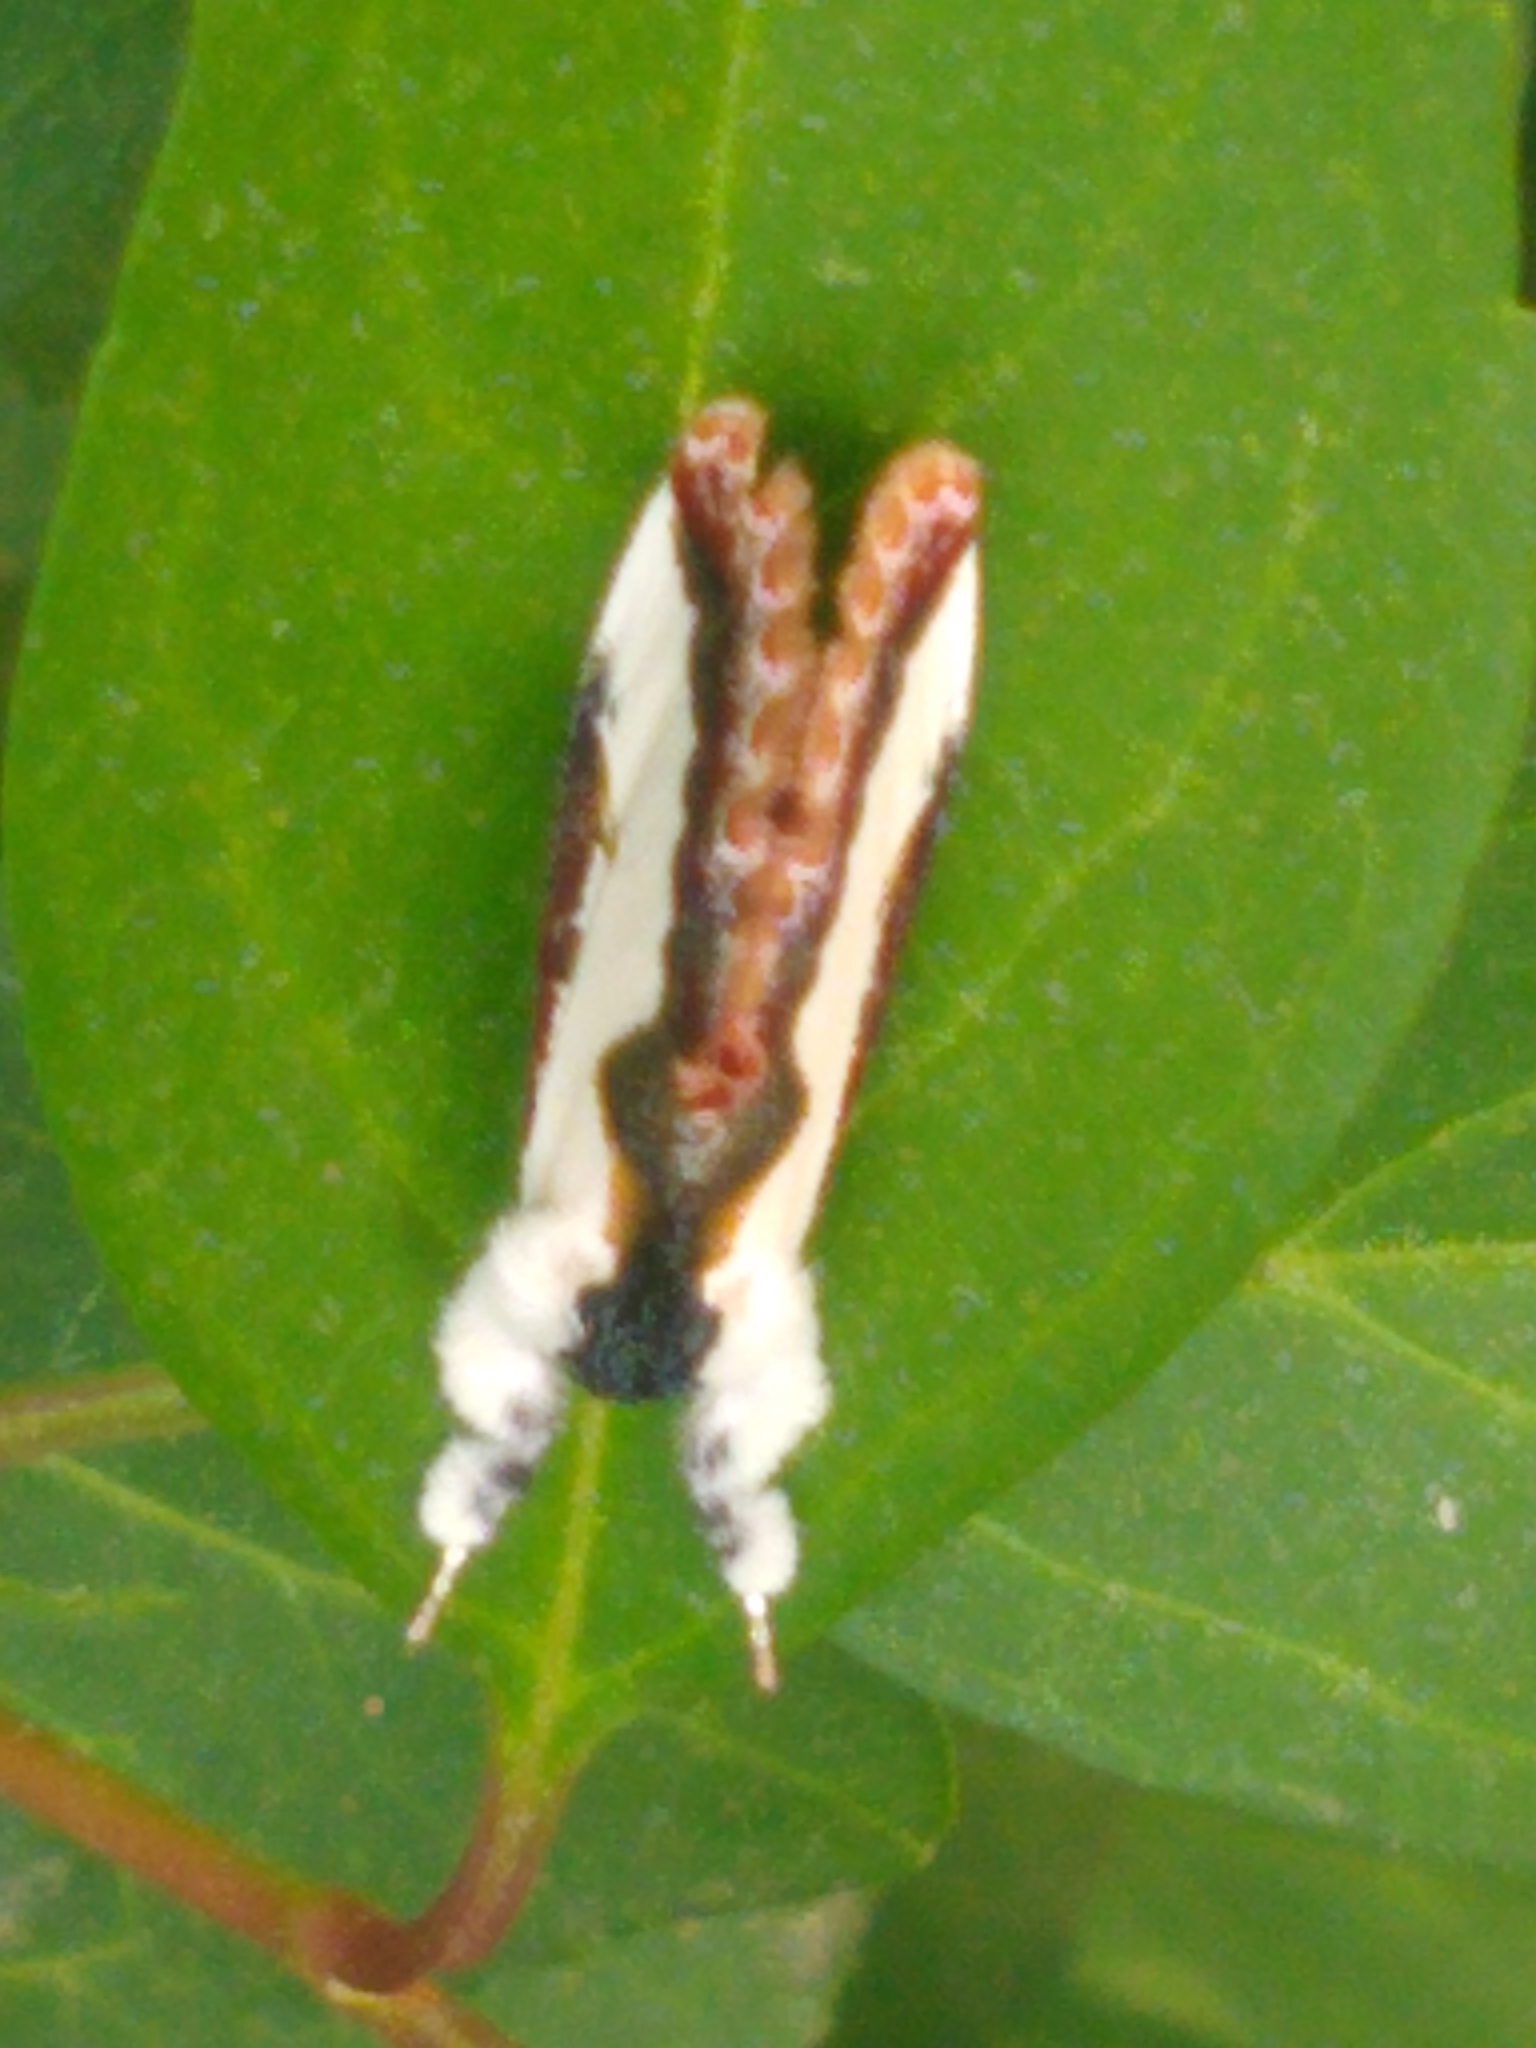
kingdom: Animalia
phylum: Arthropoda
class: Insecta
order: Lepidoptera
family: Noctuidae
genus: Eudryas
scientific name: Eudryas unio
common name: Pearly wood-nymph
